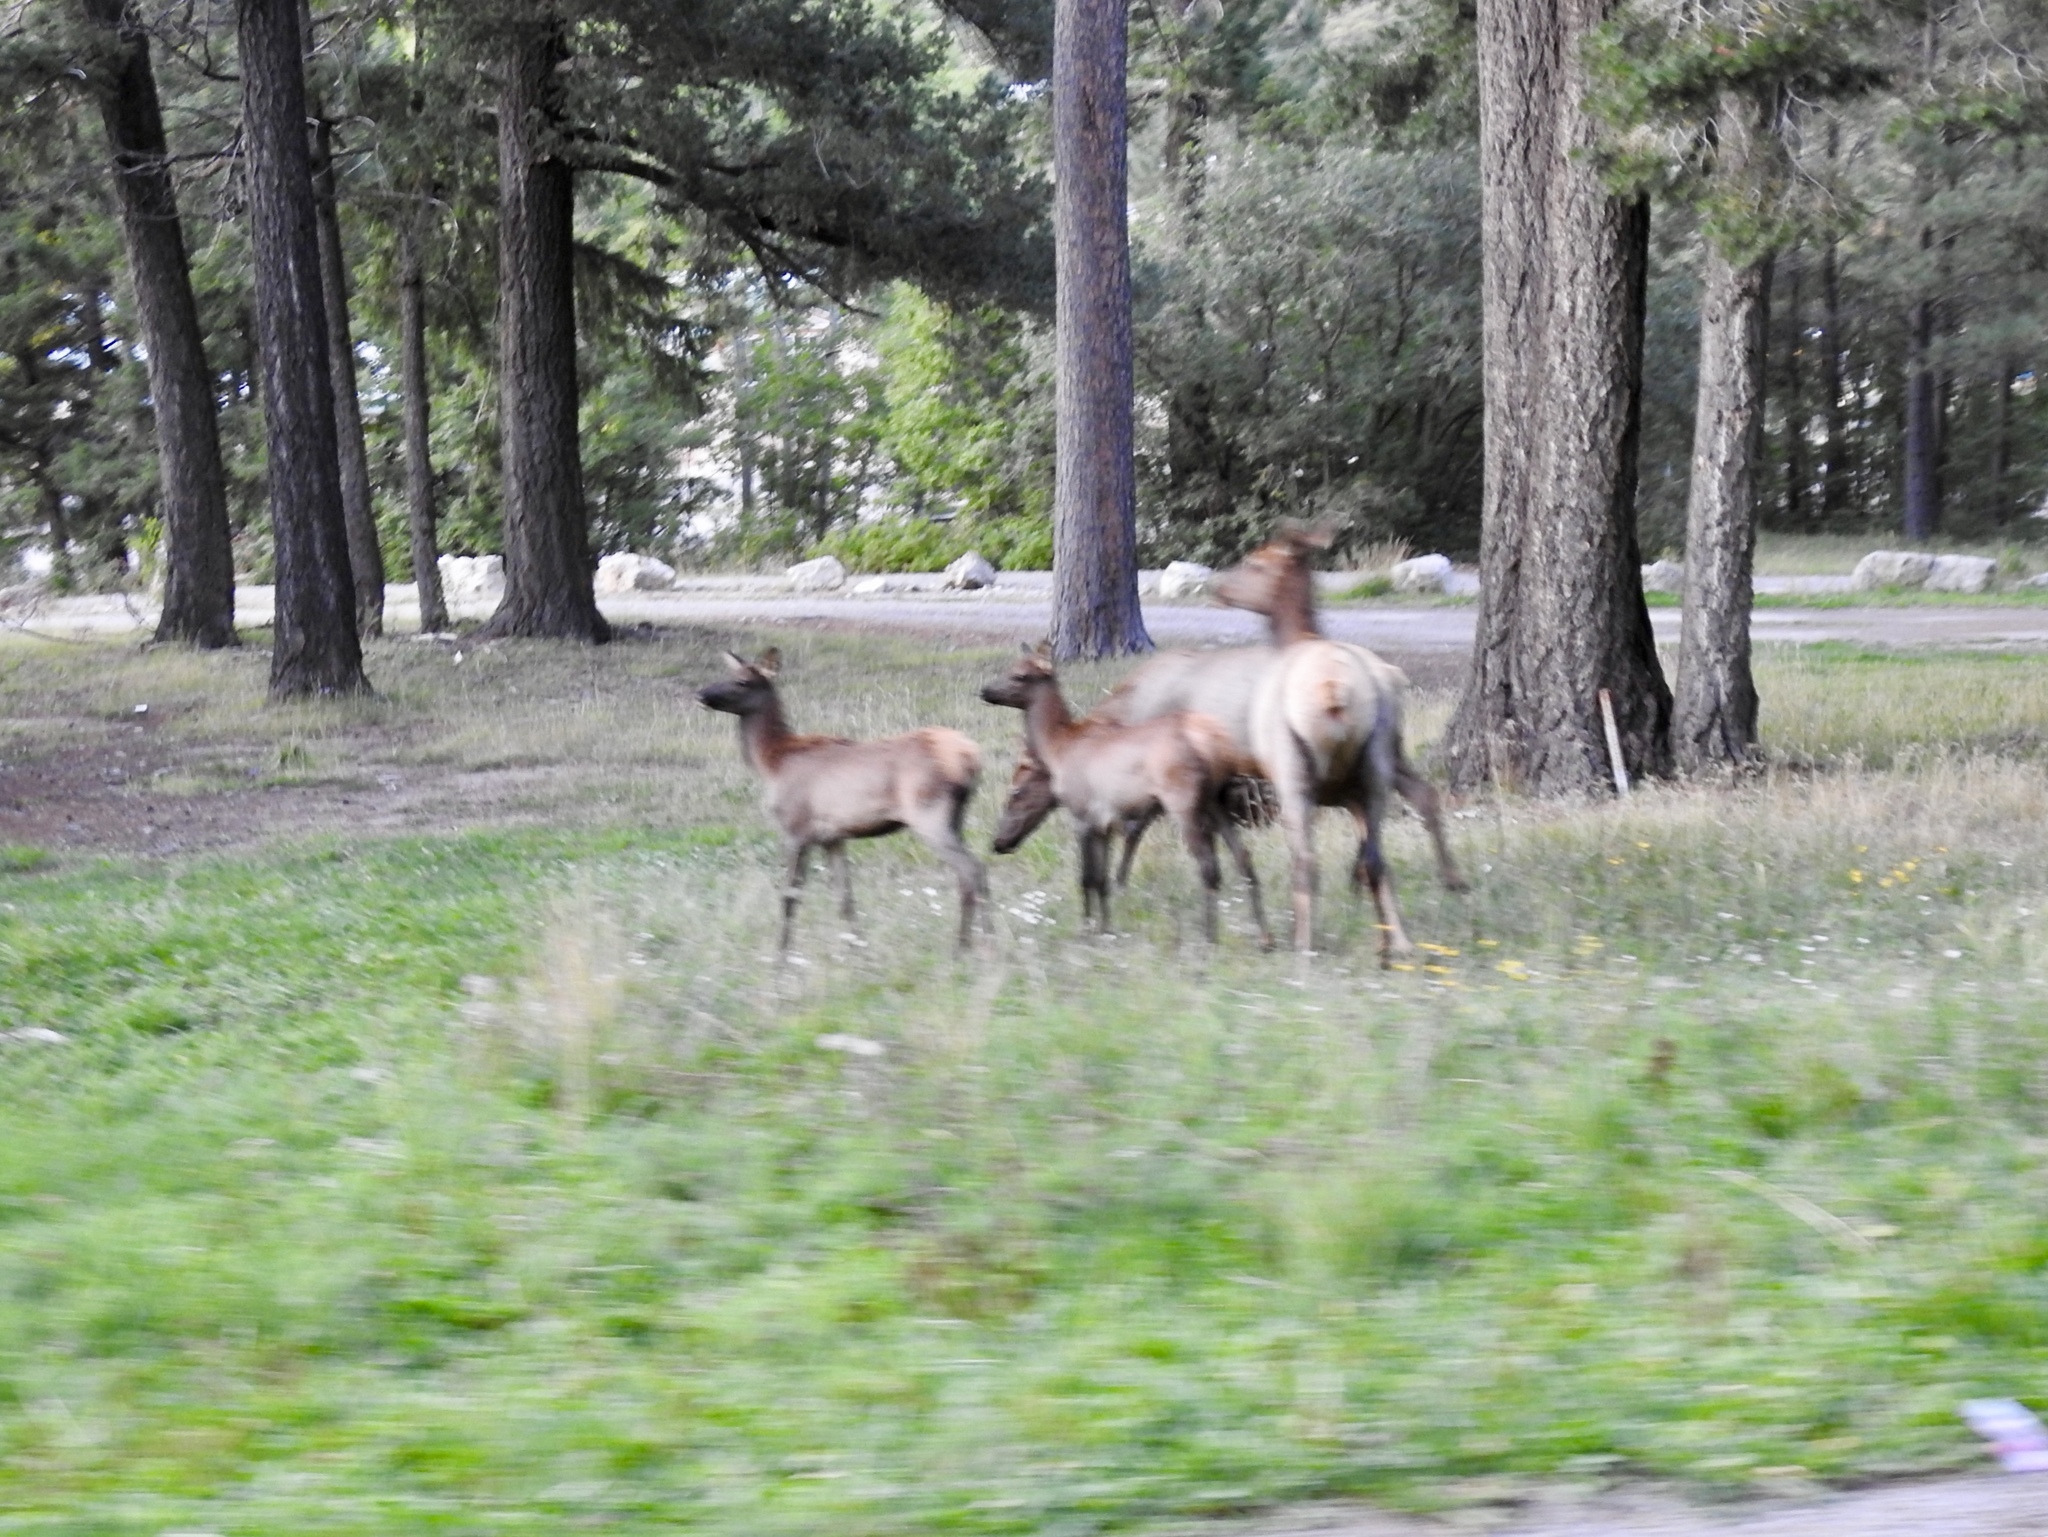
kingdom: Animalia
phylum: Chordata
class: Mammalia
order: Artiodactyla
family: Cervidae
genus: Cervus
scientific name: Cervus elaphus
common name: Red deer
